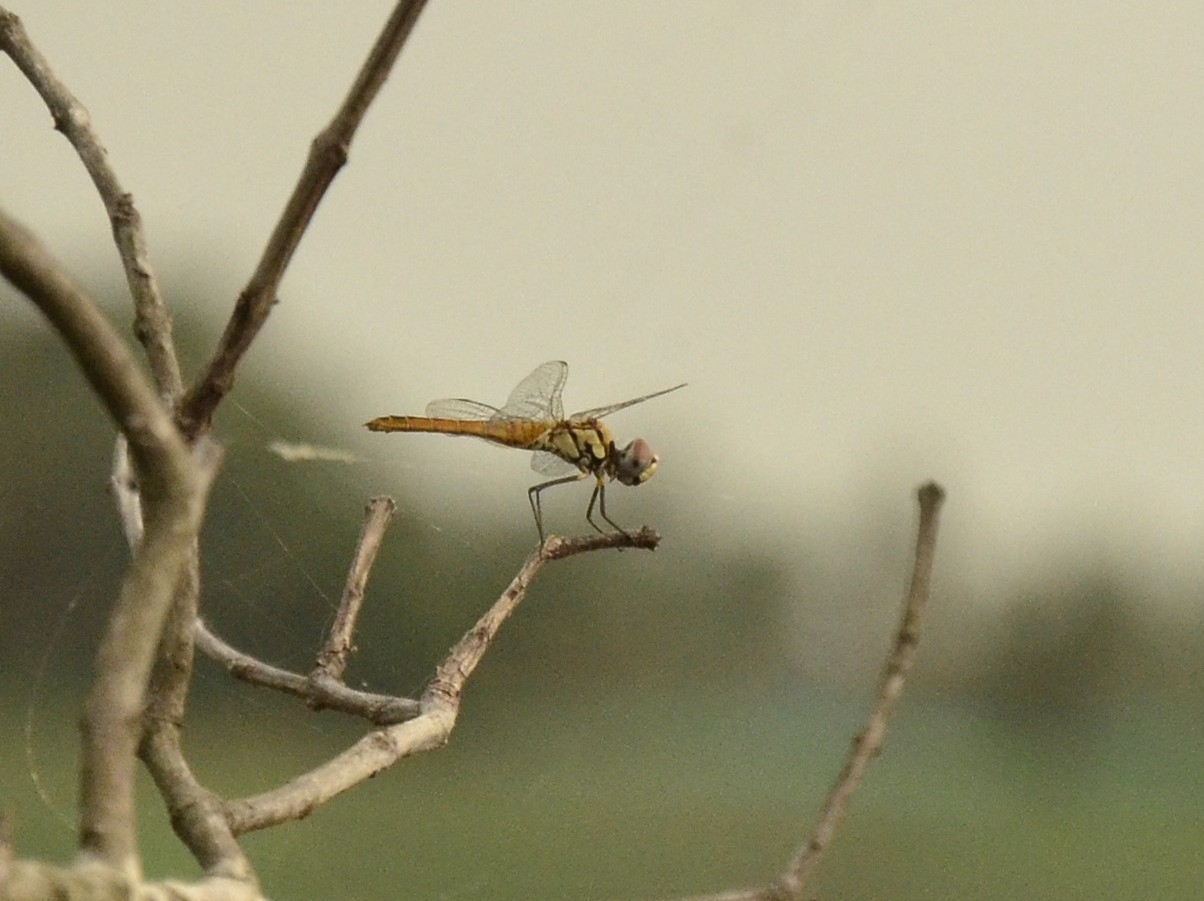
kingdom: Animalia
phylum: Arthropoda
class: Insecta
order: Odonata
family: Libellulidae
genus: Macrodiplax
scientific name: Macrodiplax cora
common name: Coastal glider
